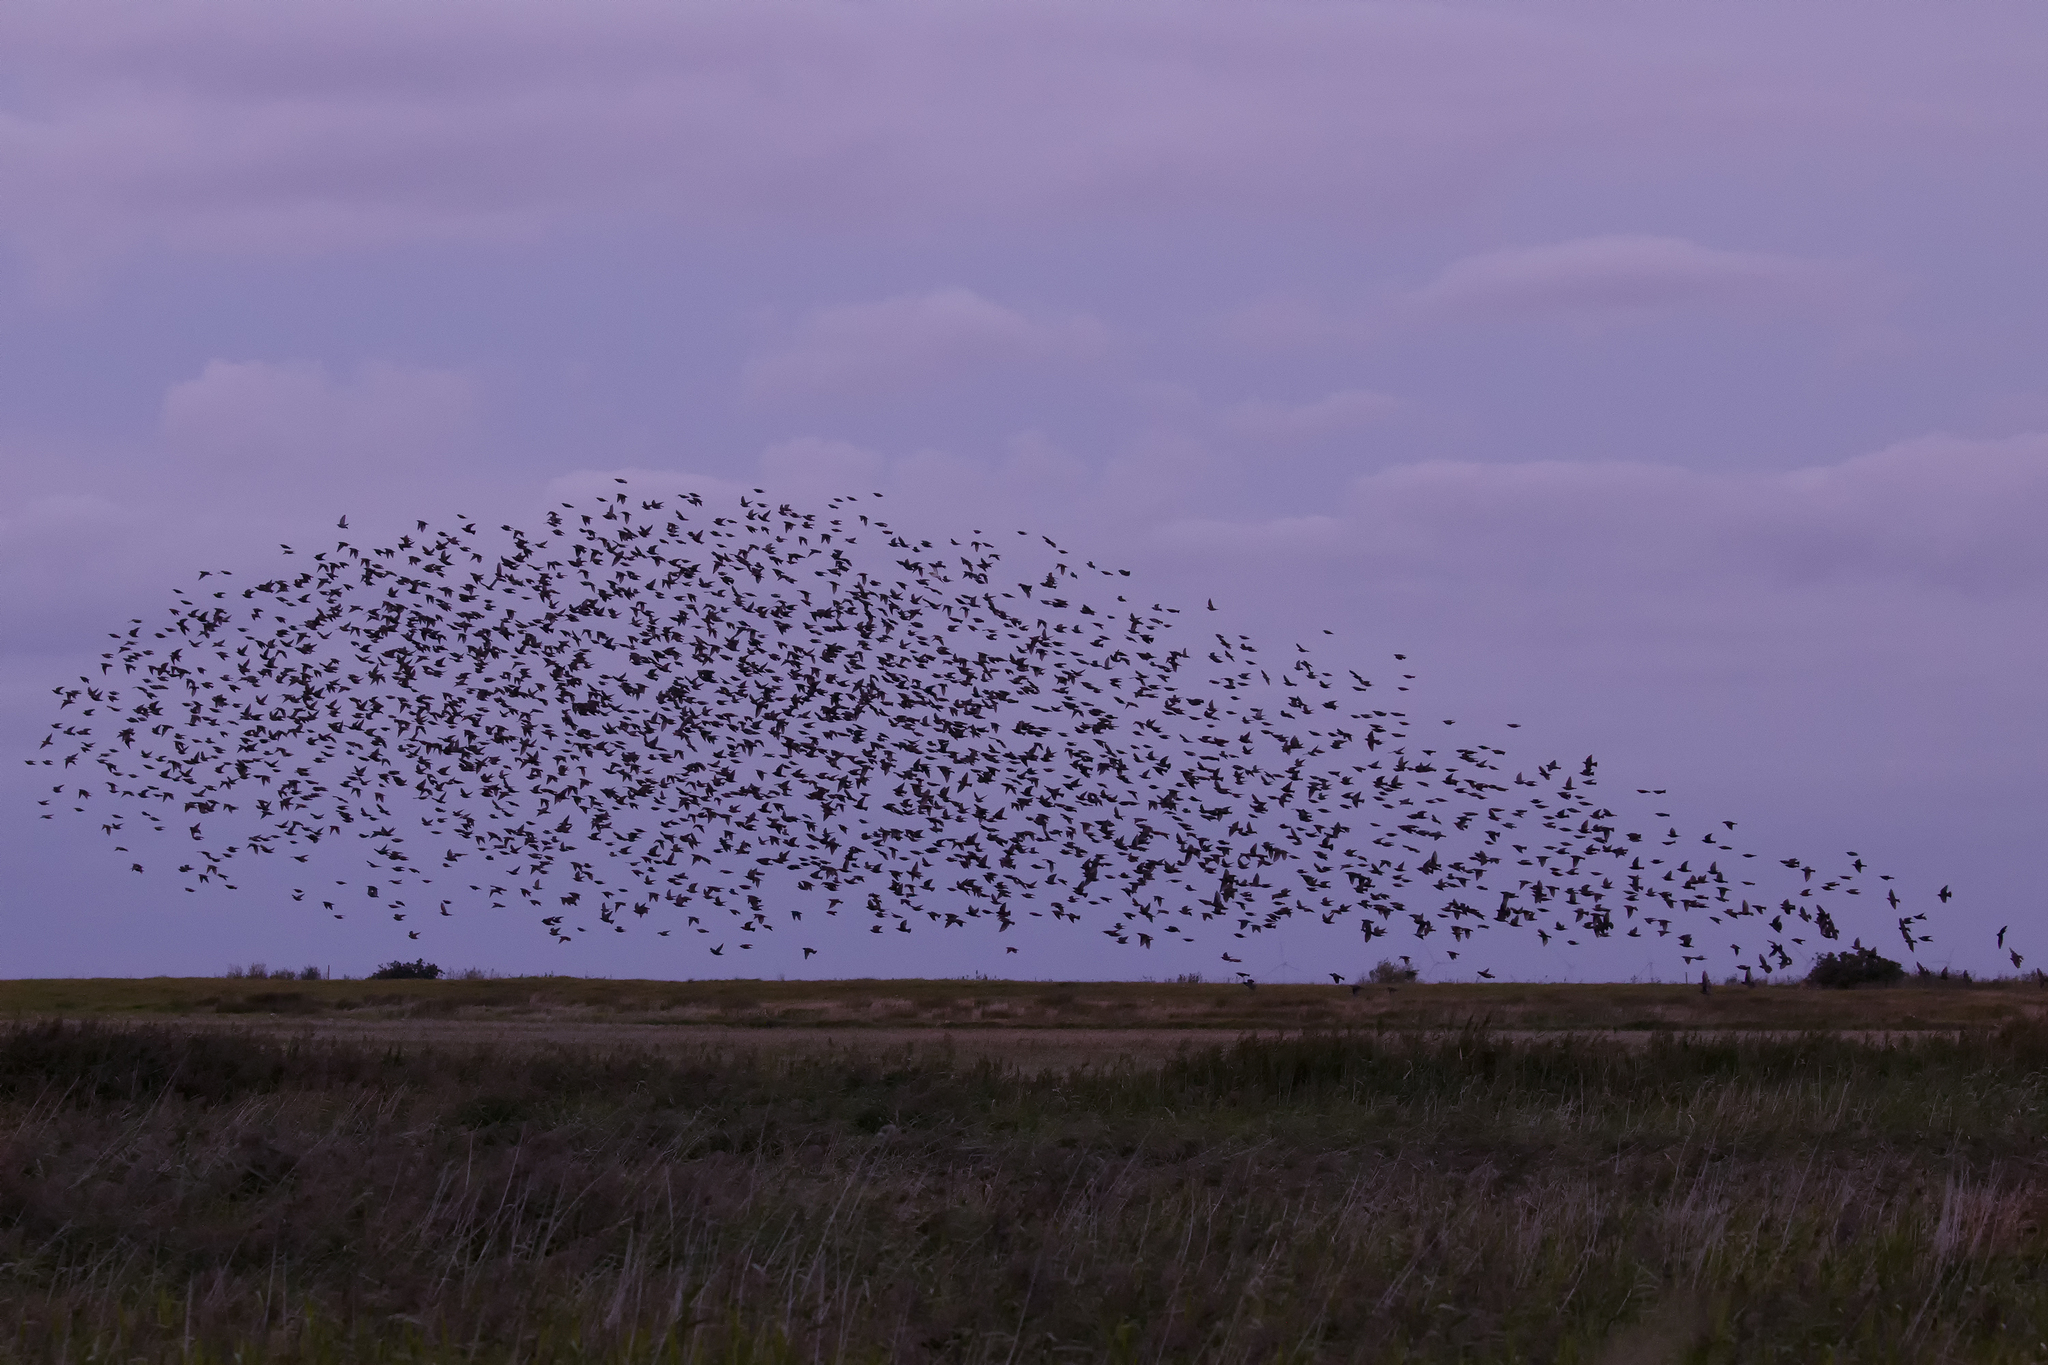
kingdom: Animalia
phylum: Chordata
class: Aves
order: Passeriformes
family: Sturnidae
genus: Sturnus
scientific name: Sturnus vulgaris
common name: Common starling
